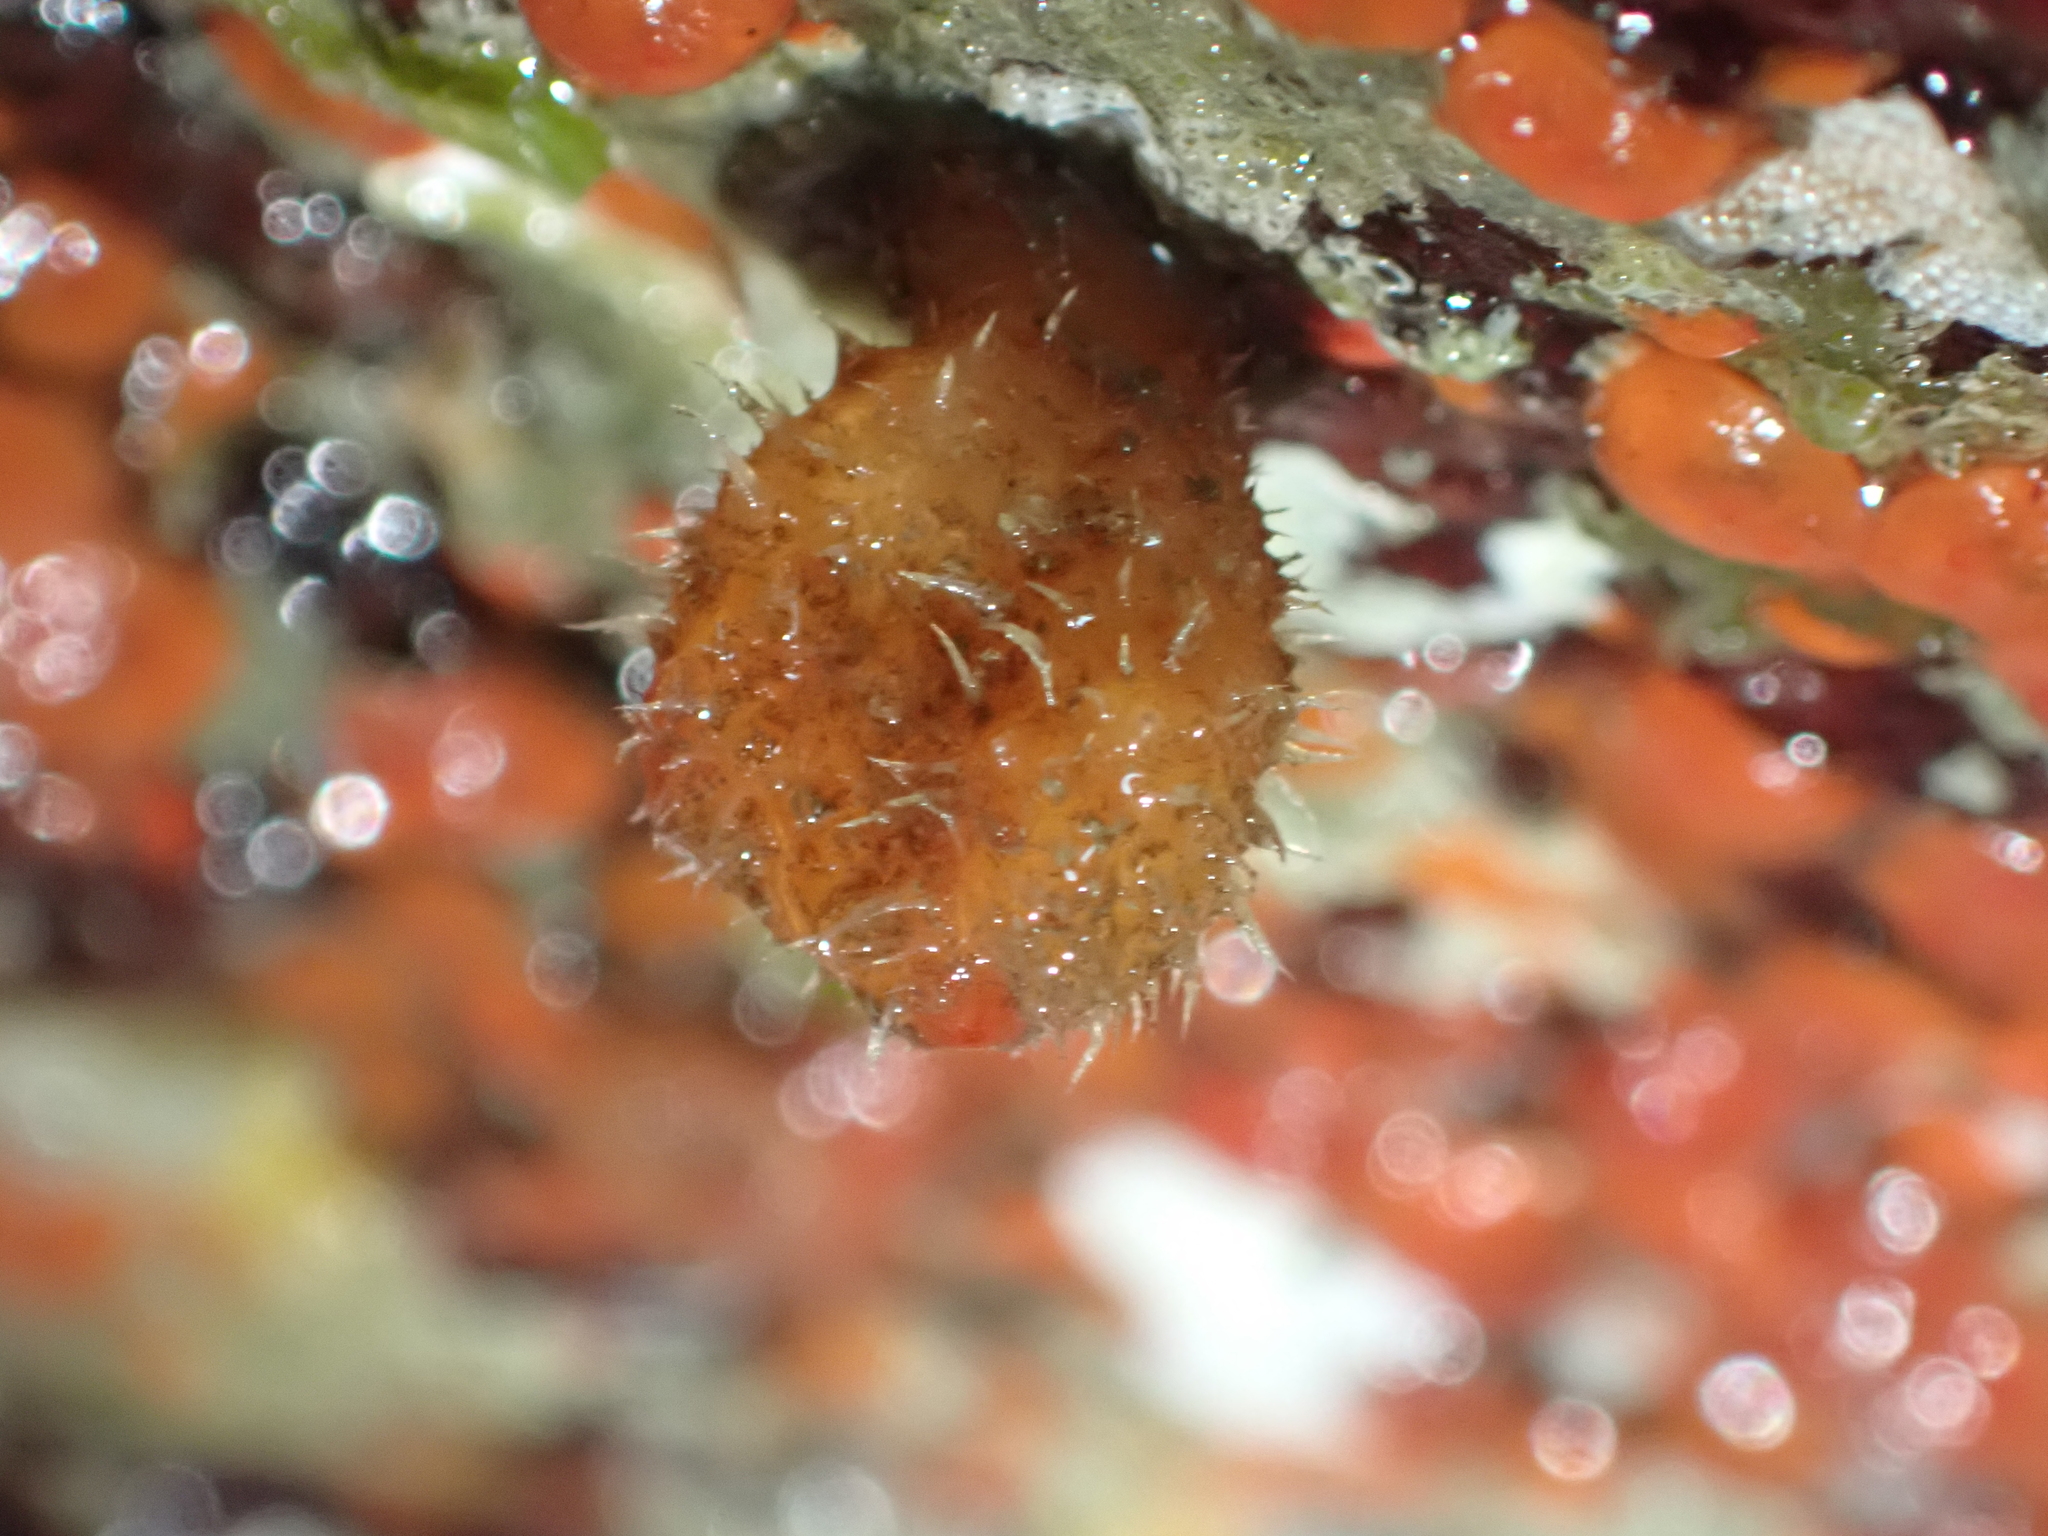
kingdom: Animalia
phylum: Chordata
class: Ascidiacea
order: Stolidobranchia
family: Pyuridae
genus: Boltenia
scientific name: Boltenia villosa
